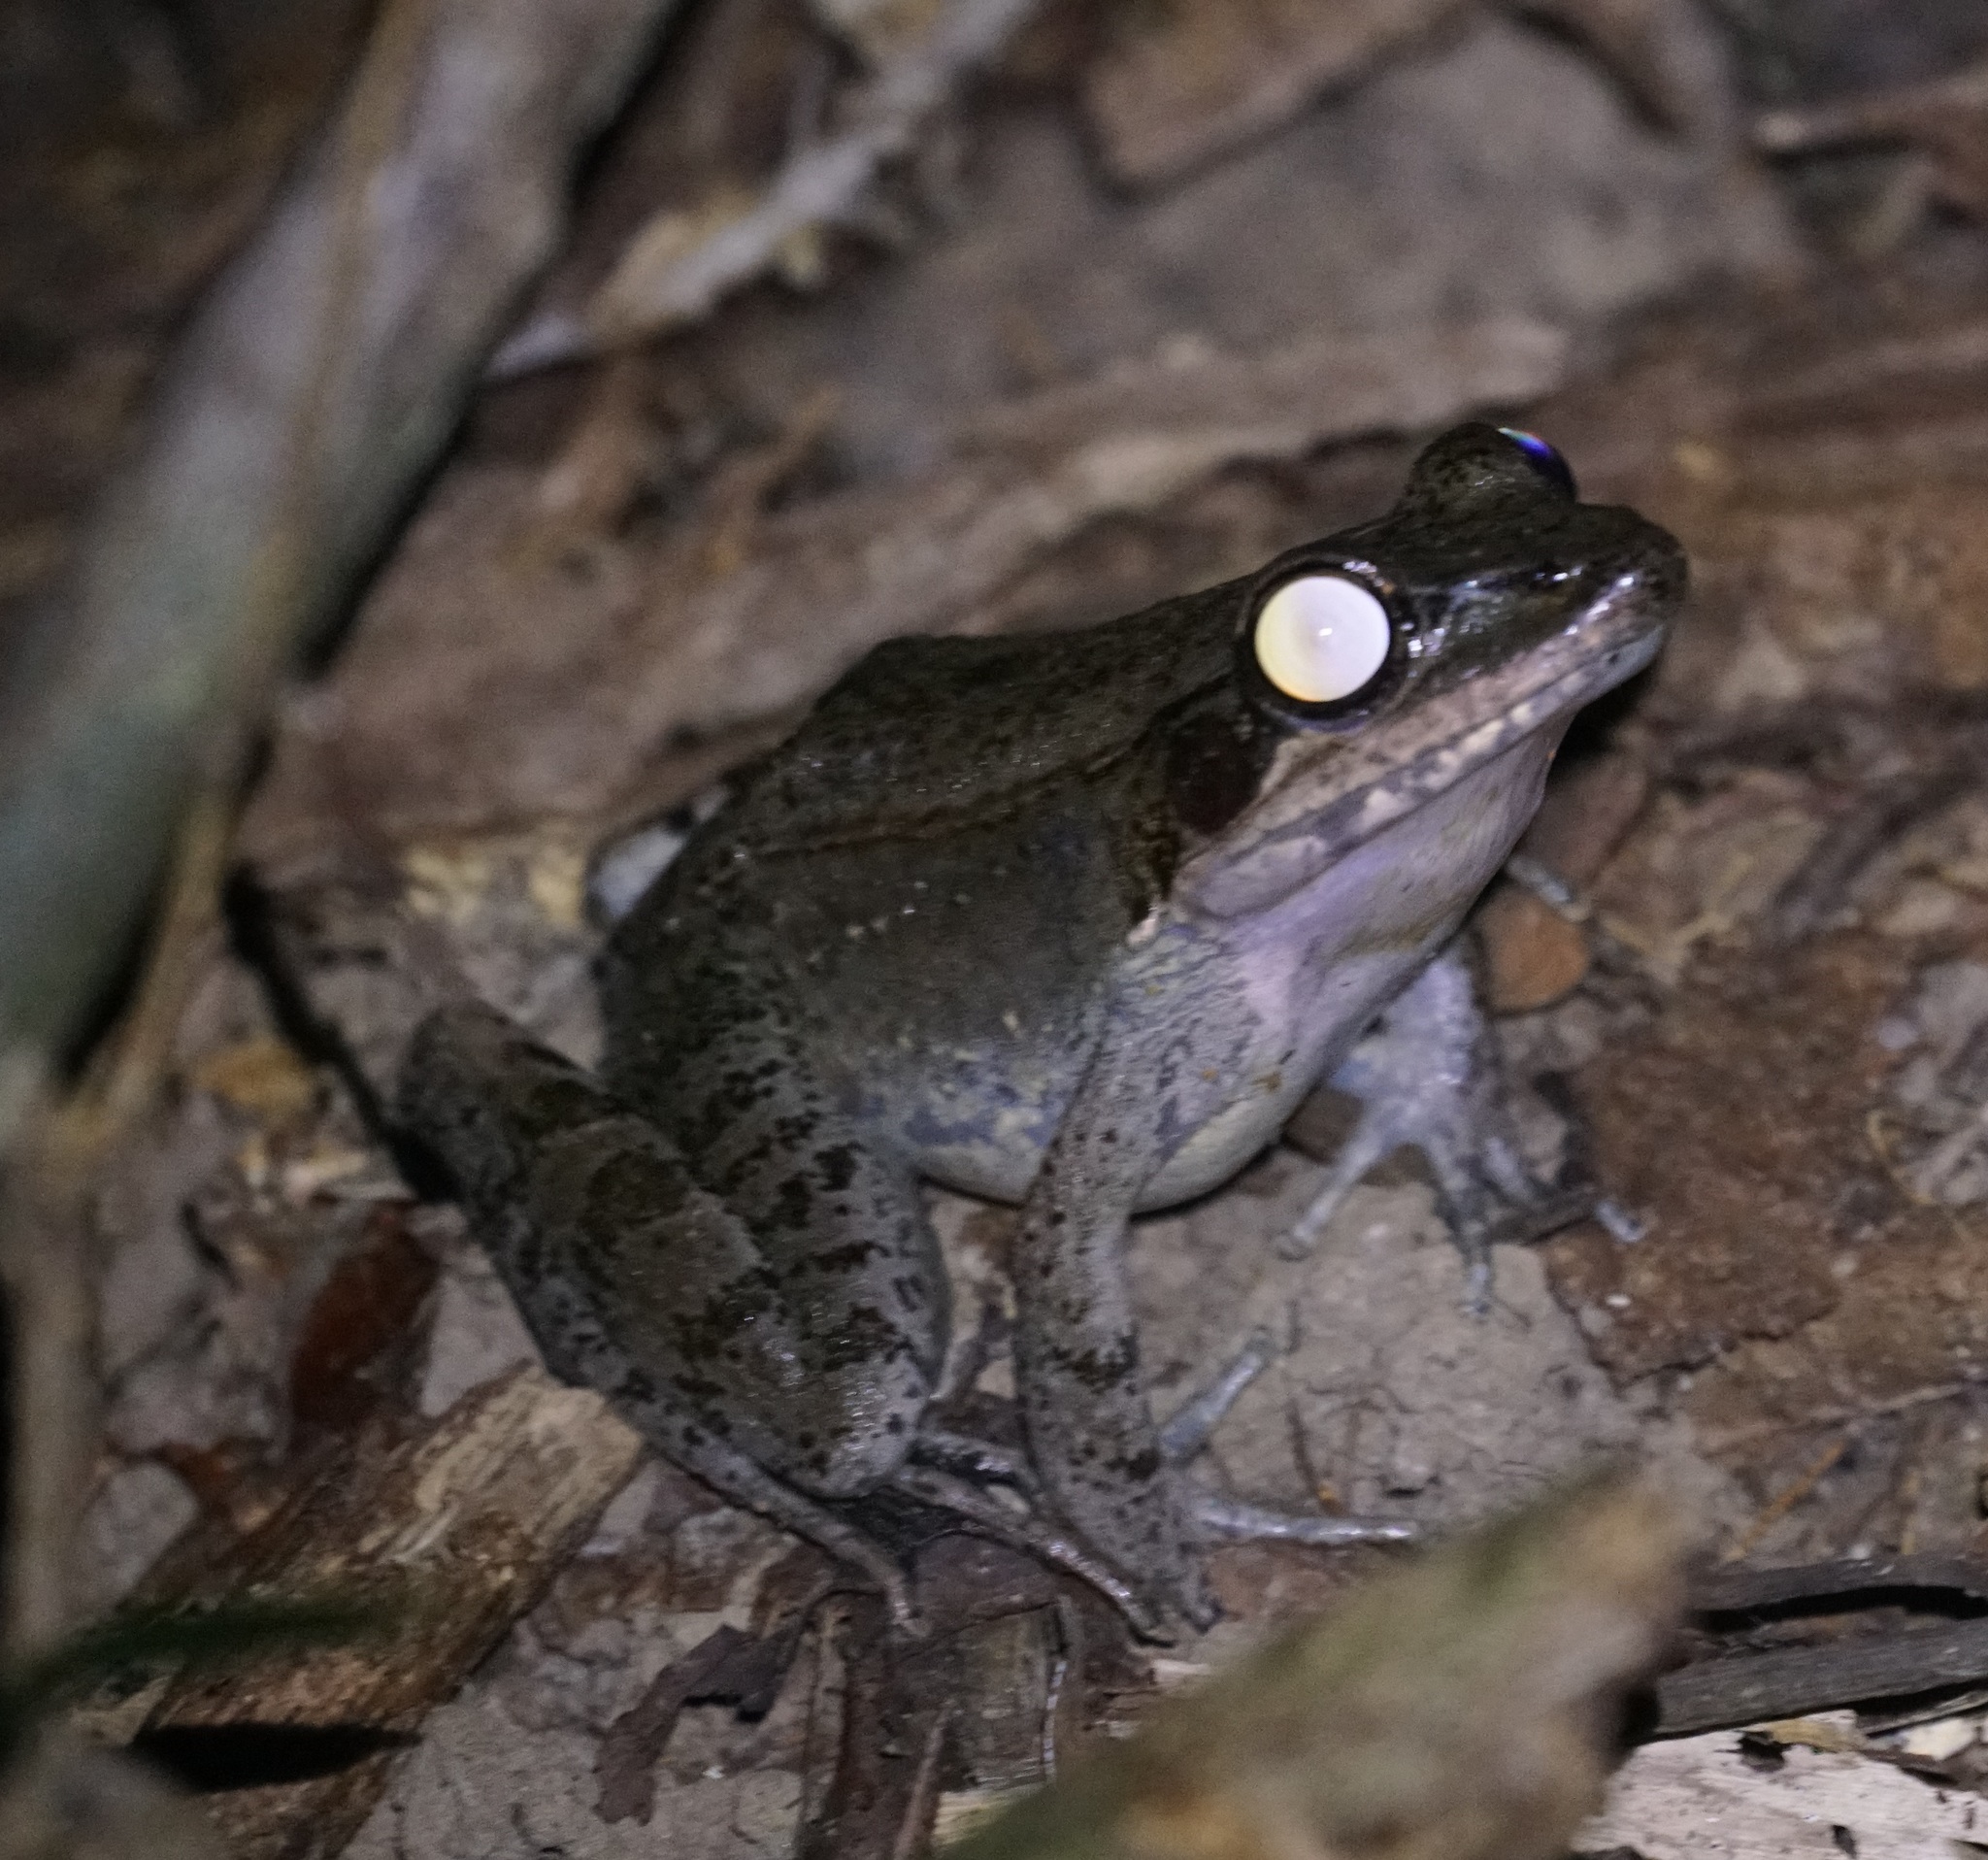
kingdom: Animalia
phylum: Chordata
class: Amphibia
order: Anura
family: Ranidae
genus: Papurana
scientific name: Papurana daemeli
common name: Arhem rana
